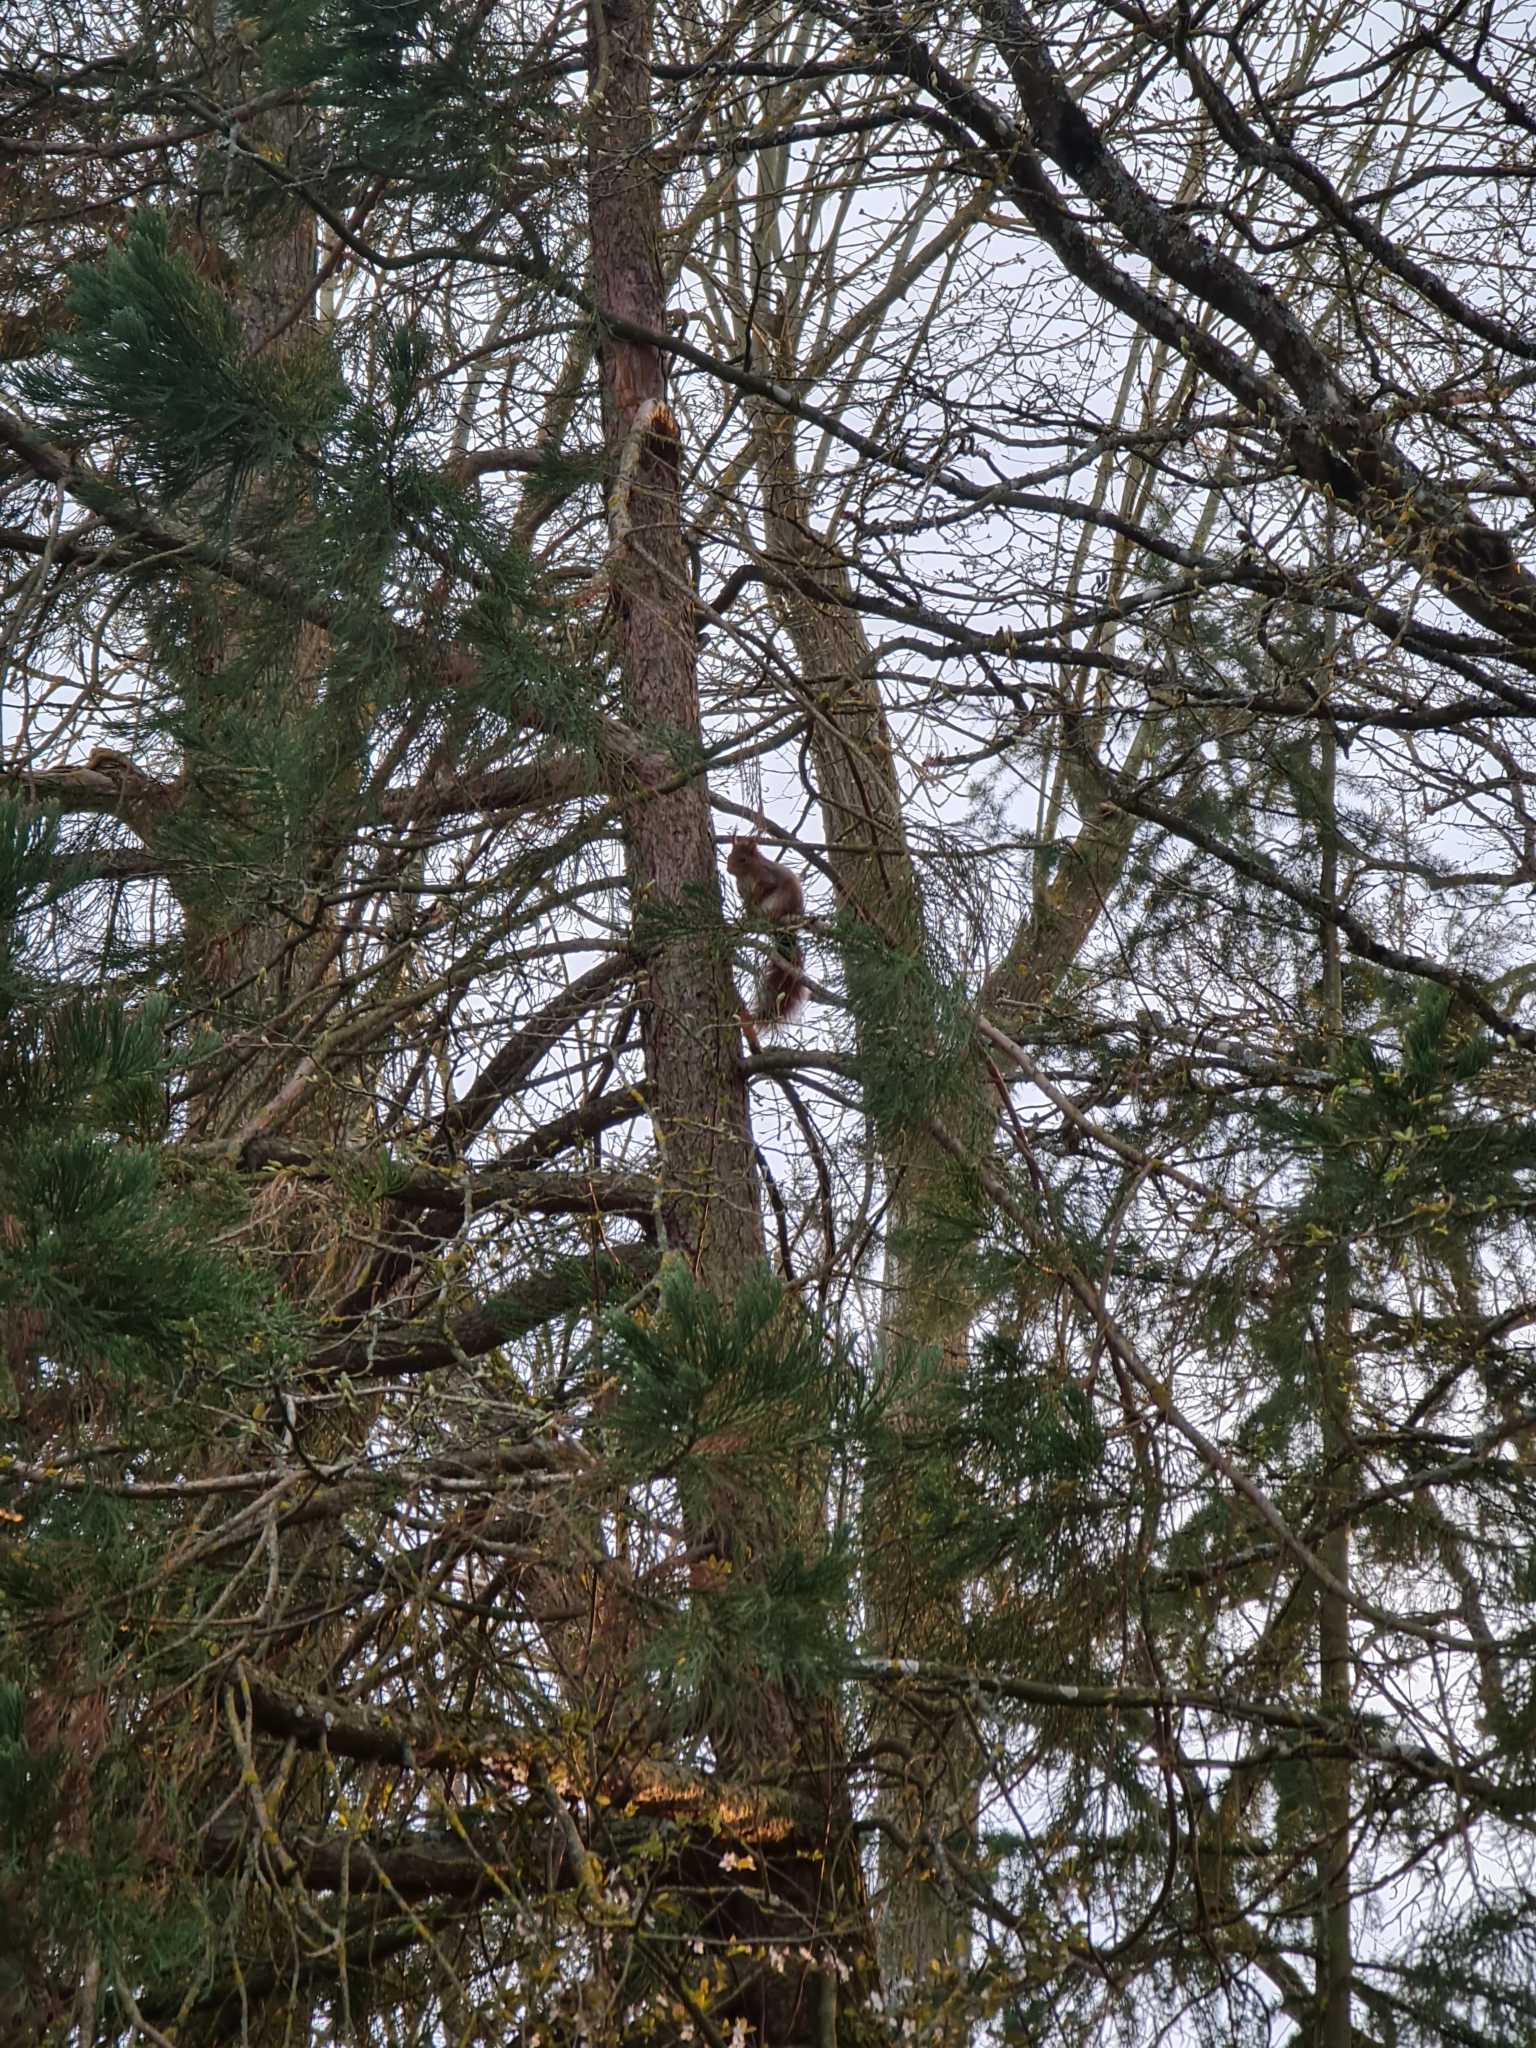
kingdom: Animalia
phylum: Chordata
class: Mammalia
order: Rodentia
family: Sciuridae
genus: Sciurus
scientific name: Sciurus vulgaris
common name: Eurasian red squirrel
